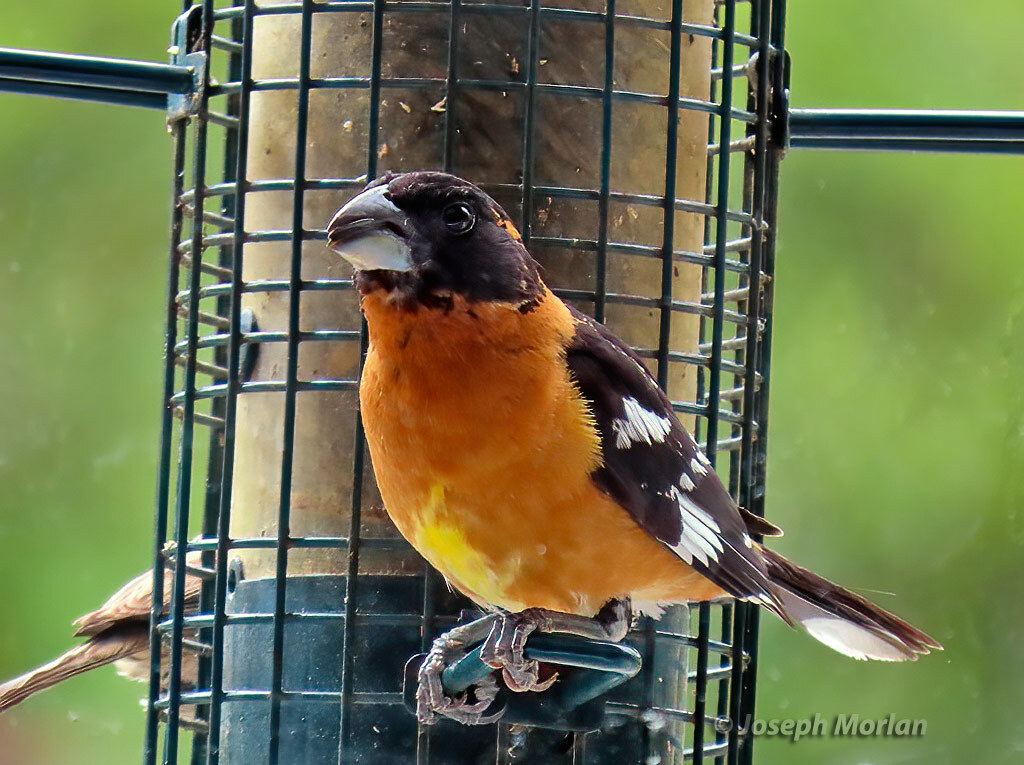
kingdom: Animalia
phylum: Chordata
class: Aves
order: Passeriformes
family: Cardinalidae
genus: Pheucticus
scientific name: Pheucticus melanocephalus
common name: Black-headed grosbeak
